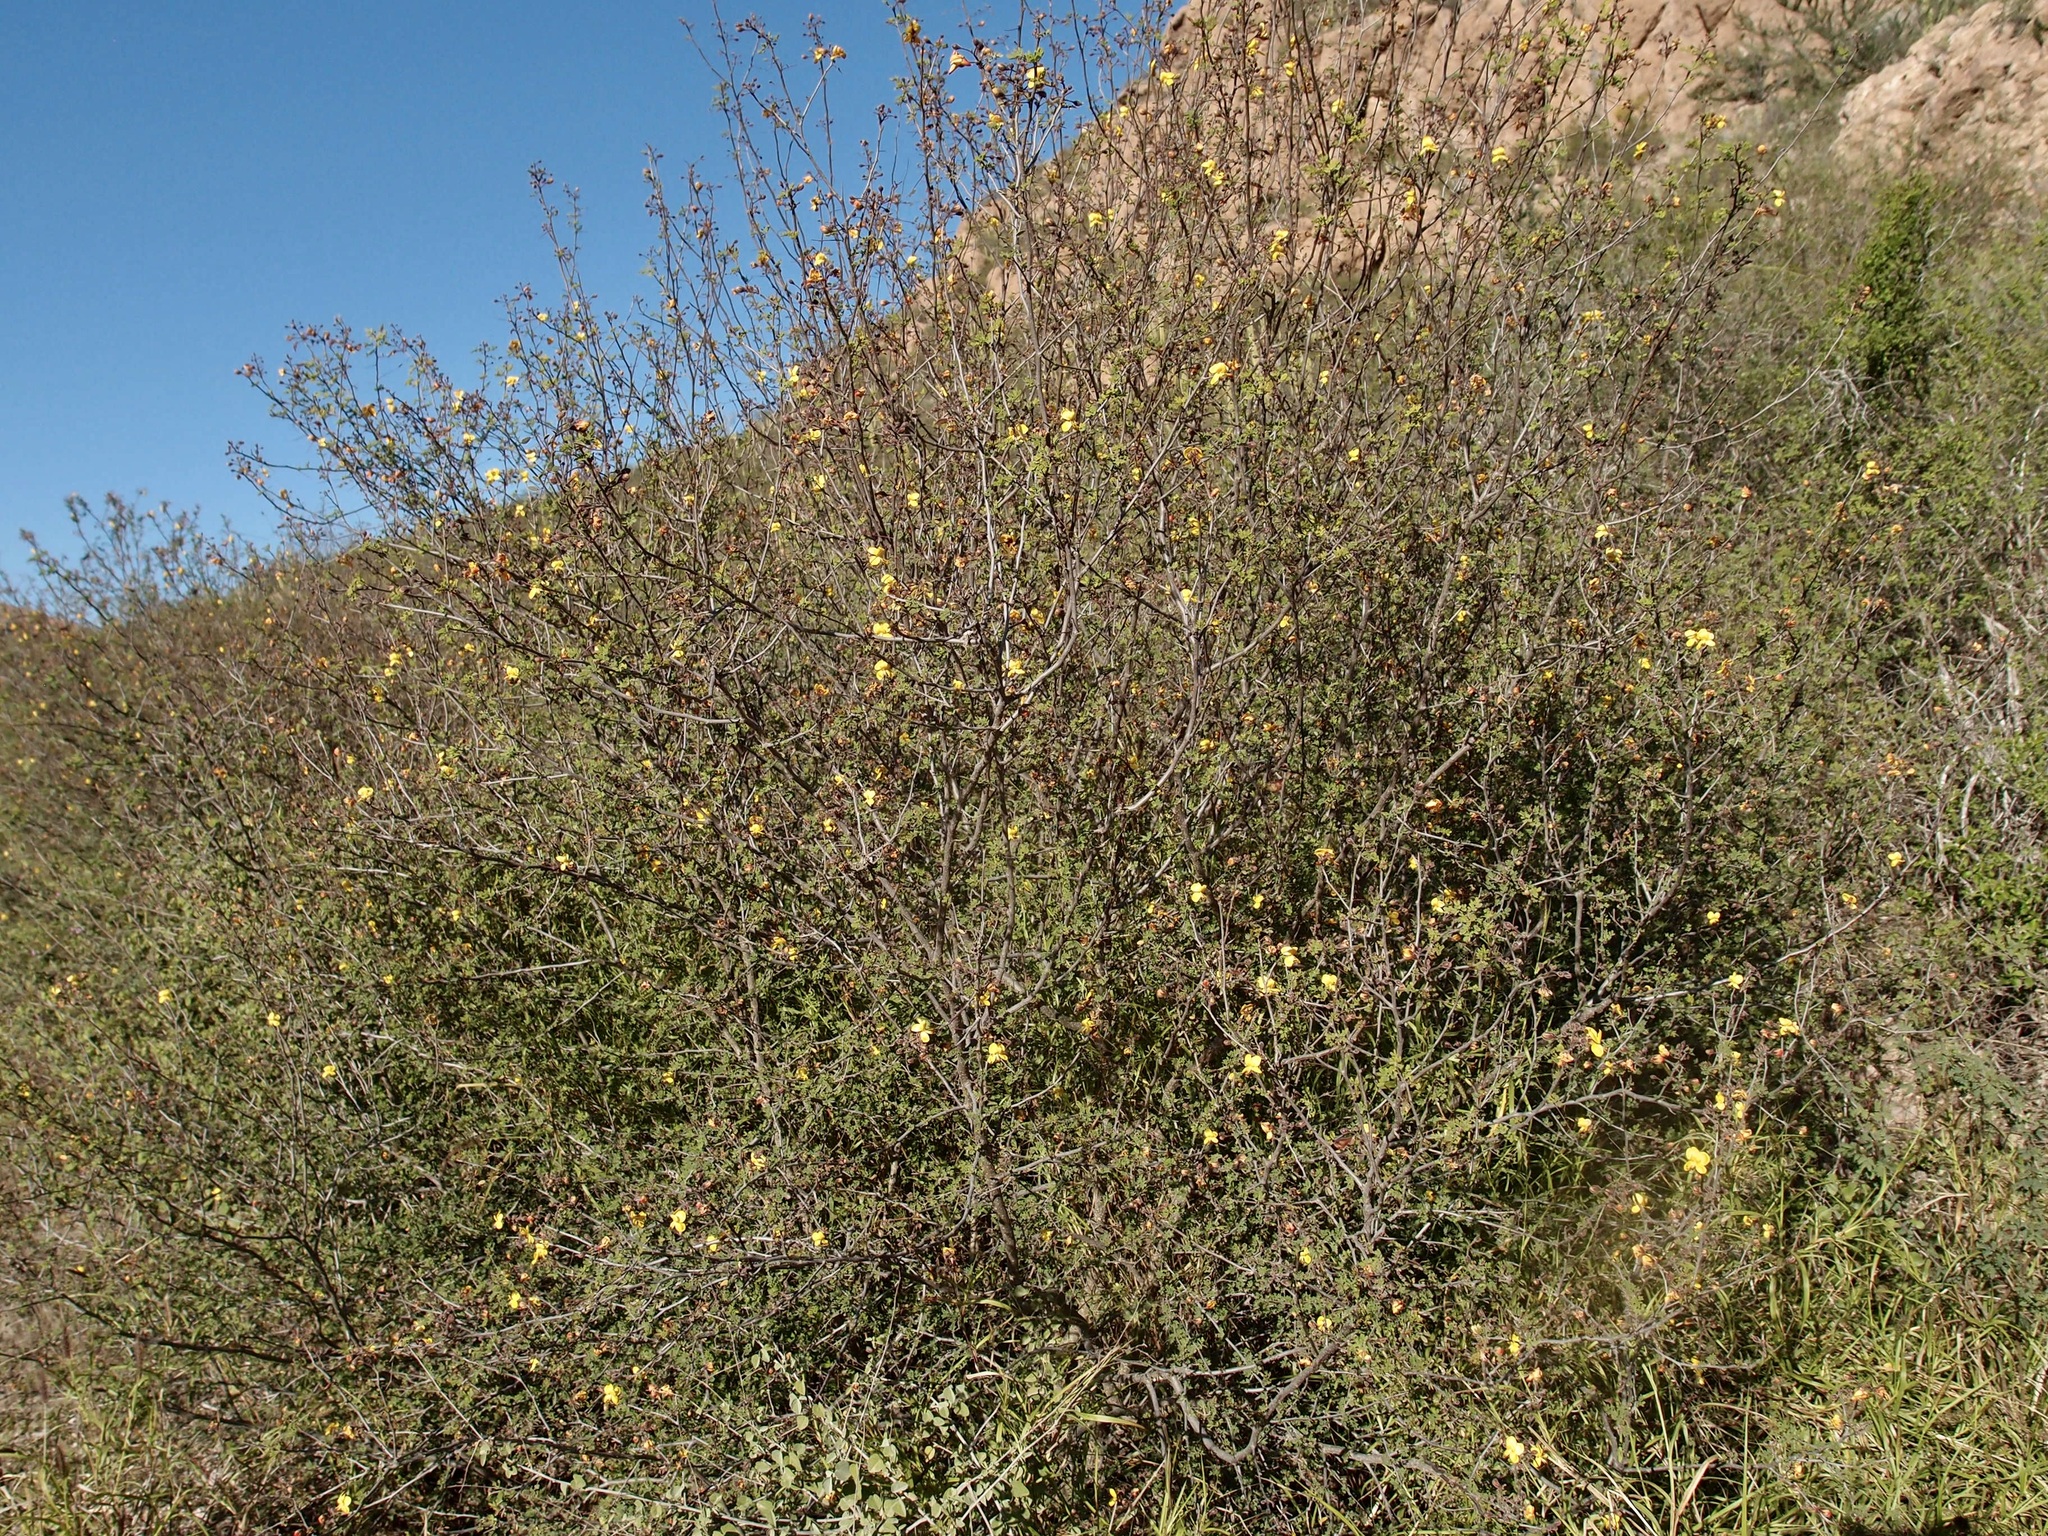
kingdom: Plantae
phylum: Tracheophyta
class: Magnoliopsida
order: Fabales
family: Fabaceae
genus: Erythrostemon
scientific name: Erythrostemon palmeri
